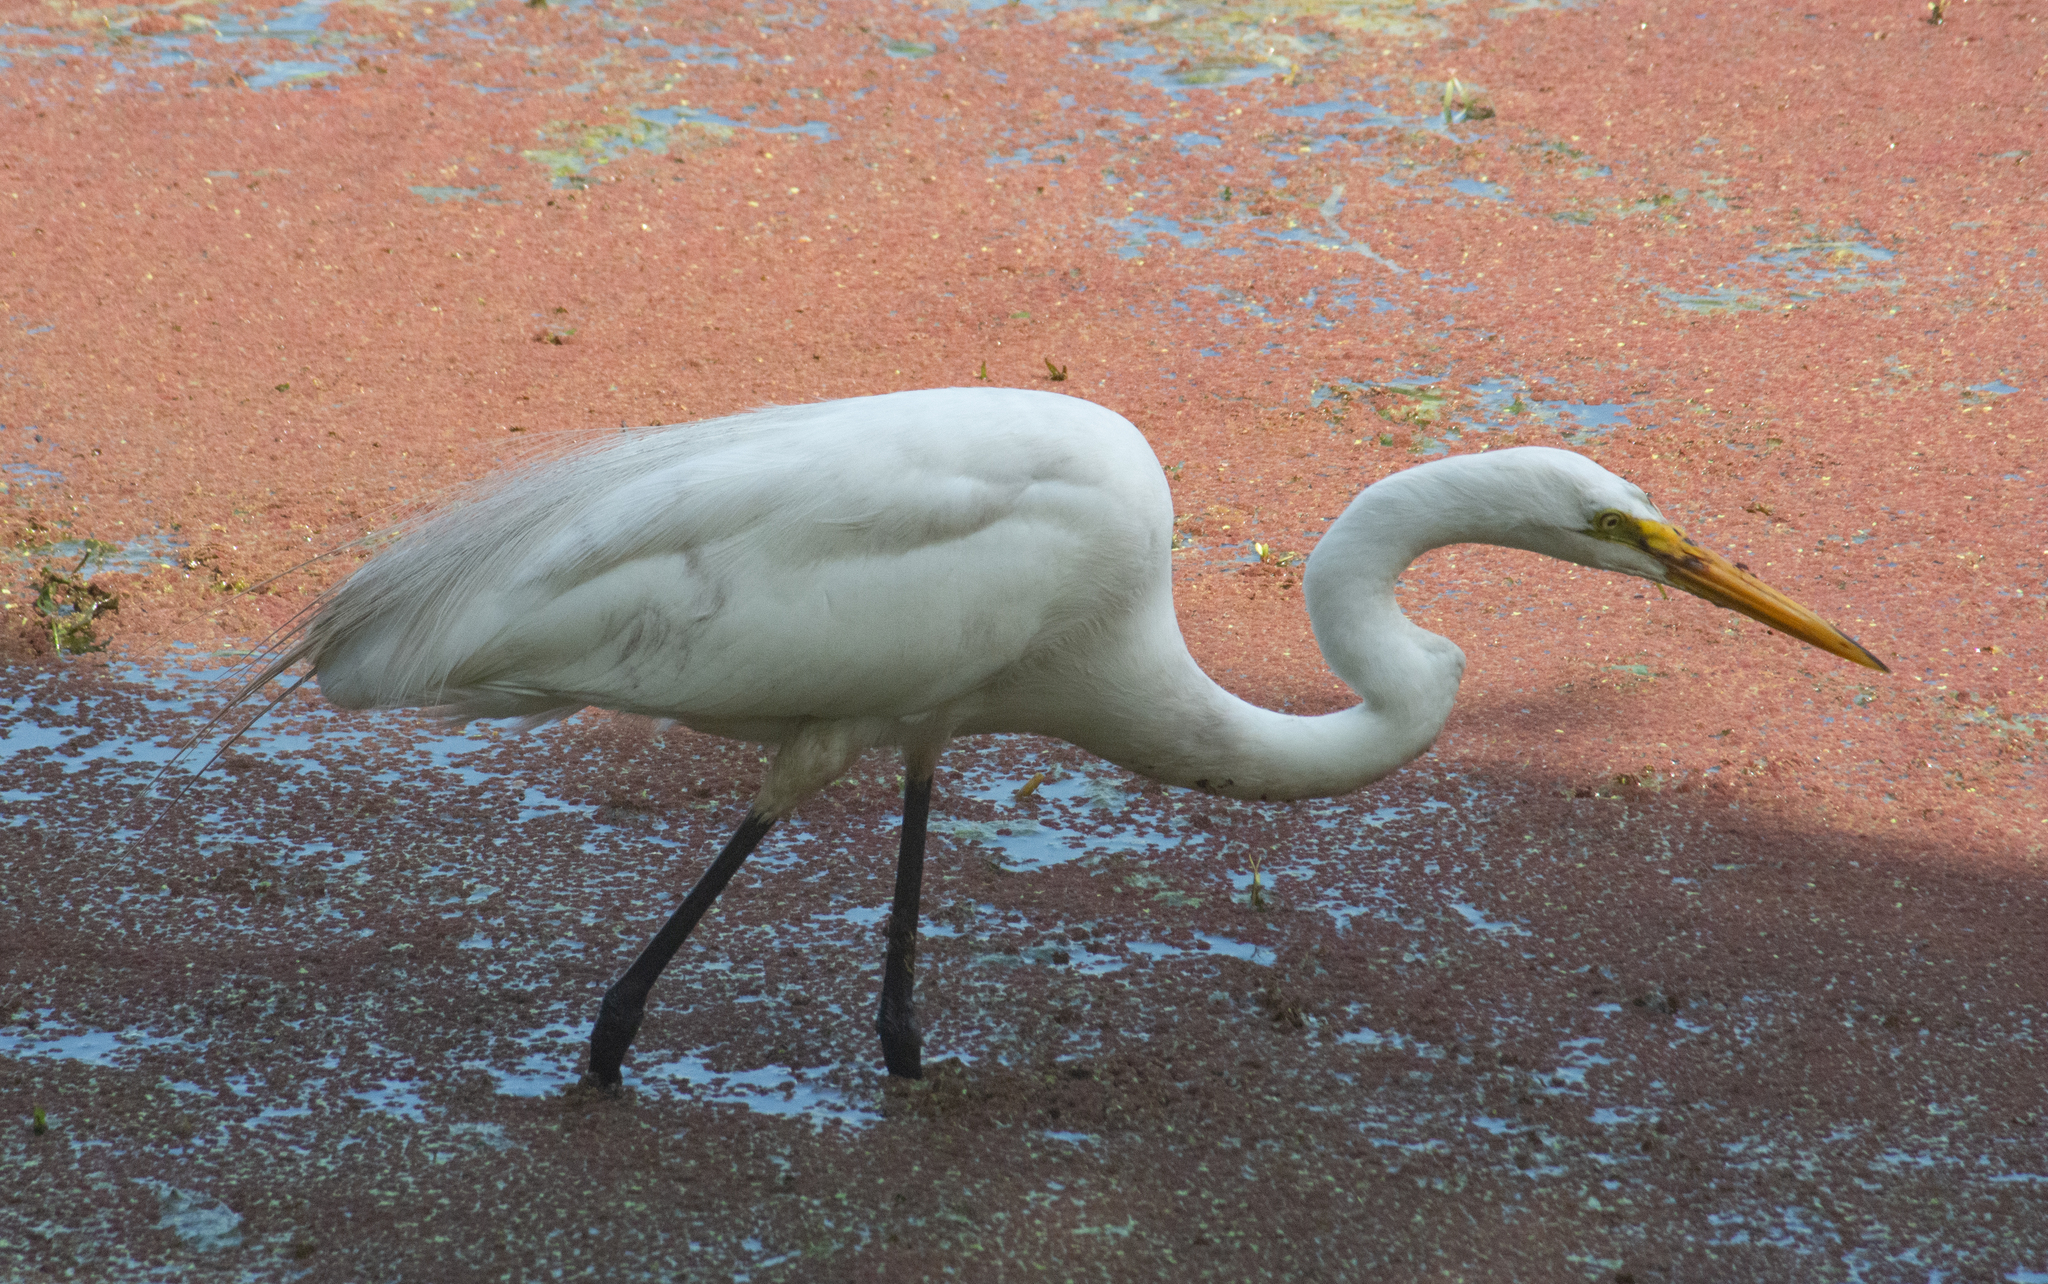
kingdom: Animalia
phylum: Chordata
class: Aves
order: Pelecaniformes
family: Ardeidae
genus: Ardea
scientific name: Ardea alba
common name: Great egret
